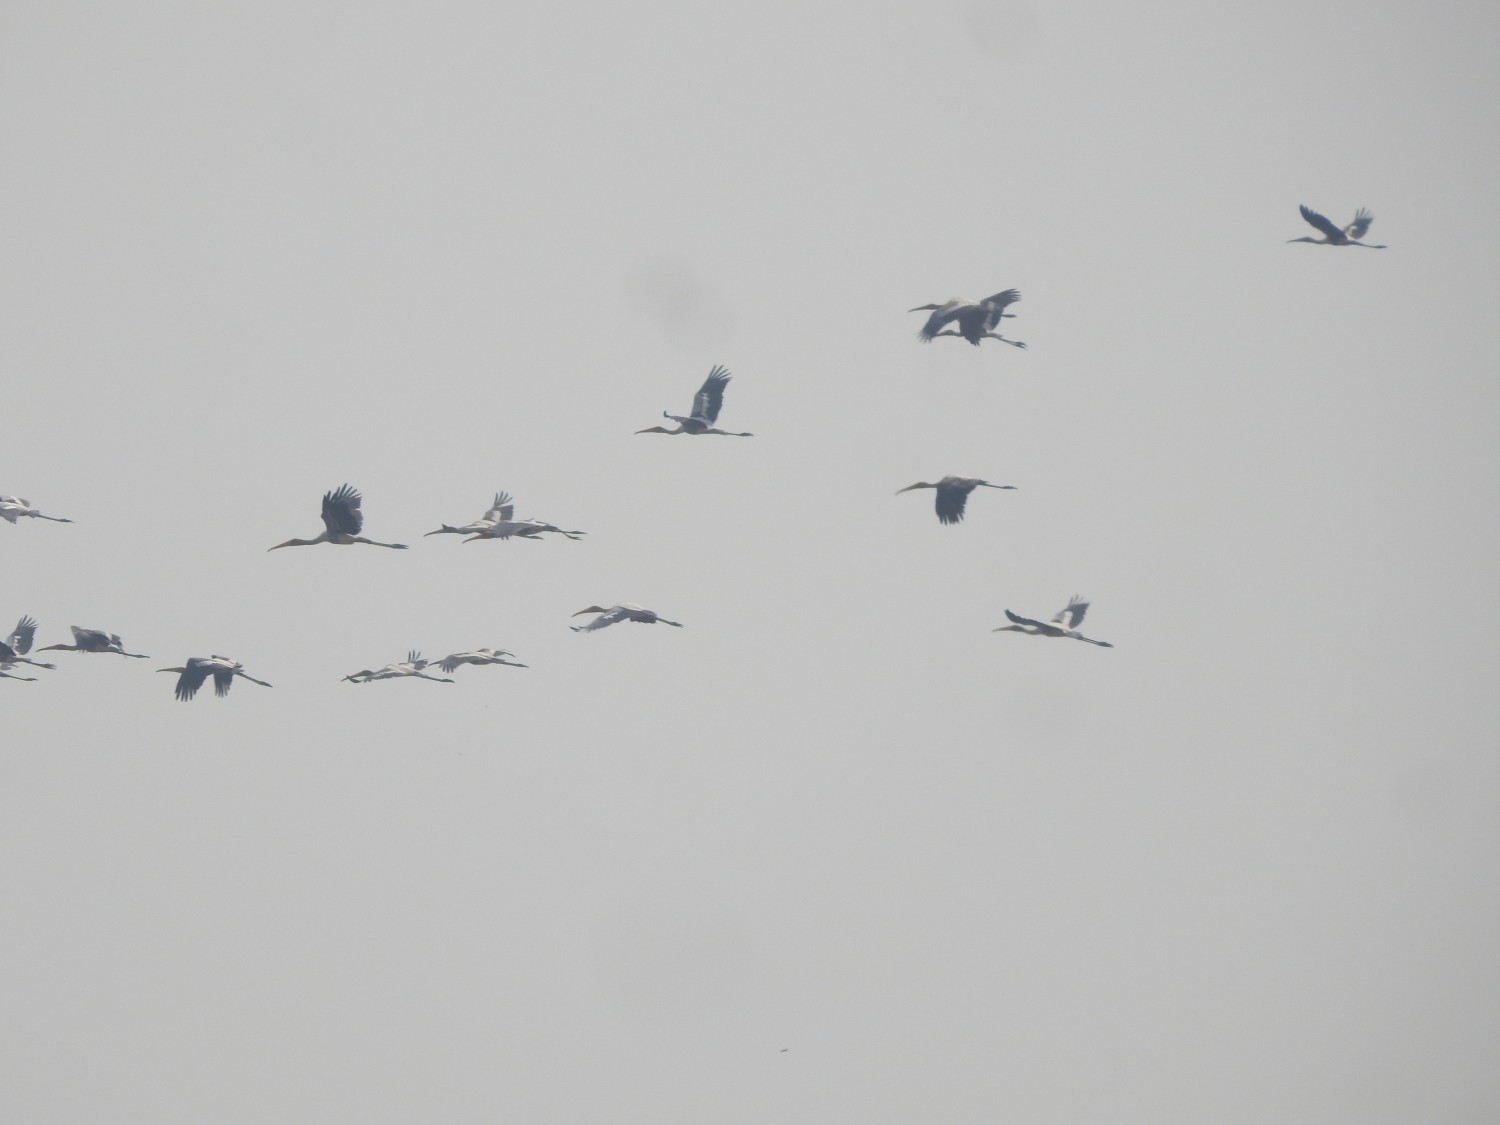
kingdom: Animalia
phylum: Chordata
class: Aves
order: Ciconiiformes
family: Ciconiidae
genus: Mycteria
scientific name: Mycteria leucocephala
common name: Painted stork
